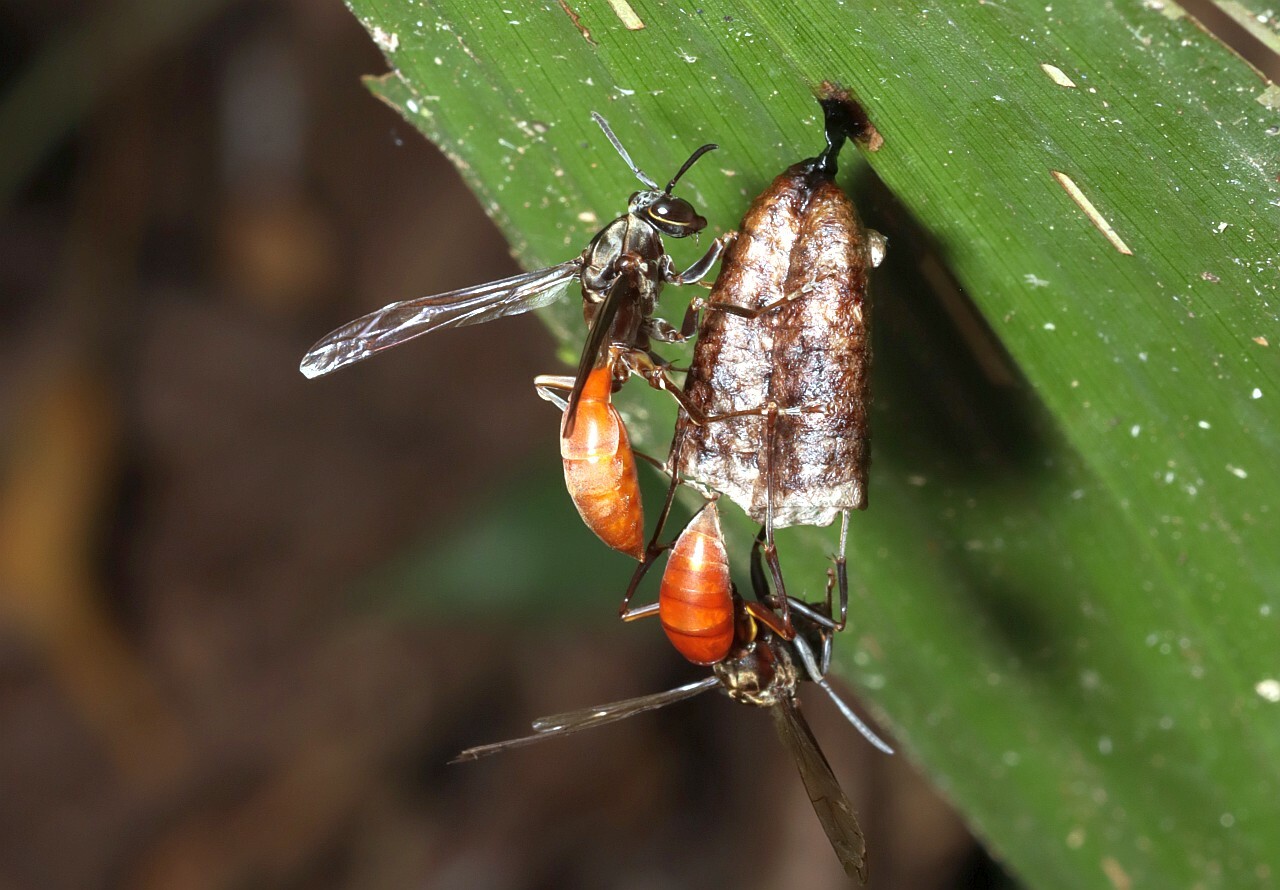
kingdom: Animalia
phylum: Arthropoda
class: Insecta
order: Hymenoptera
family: Eumenidae
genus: Polistes
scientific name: Polistes occipitalis
